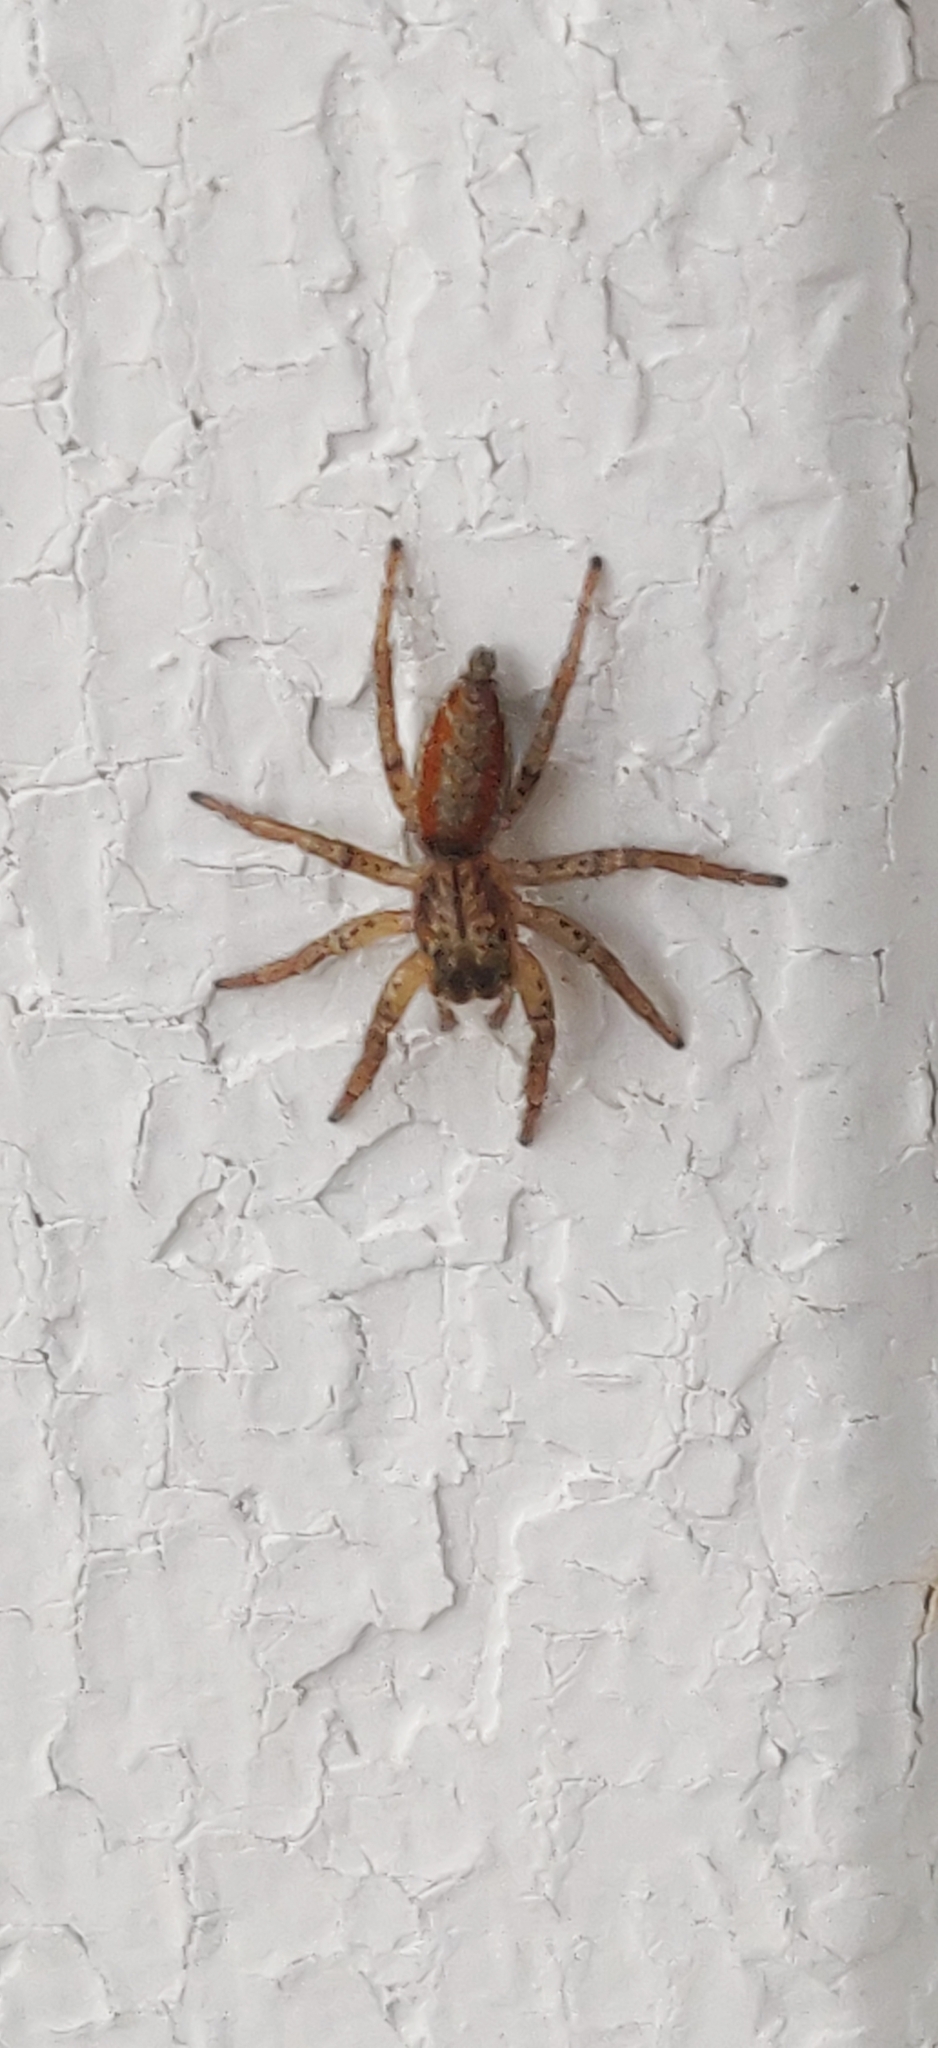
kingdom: Animalia
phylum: Arthropoda
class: Arachnida
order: Araneae
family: Salticidae
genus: Maevia
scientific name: Maevia inclemens
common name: Dimorphic jumper
